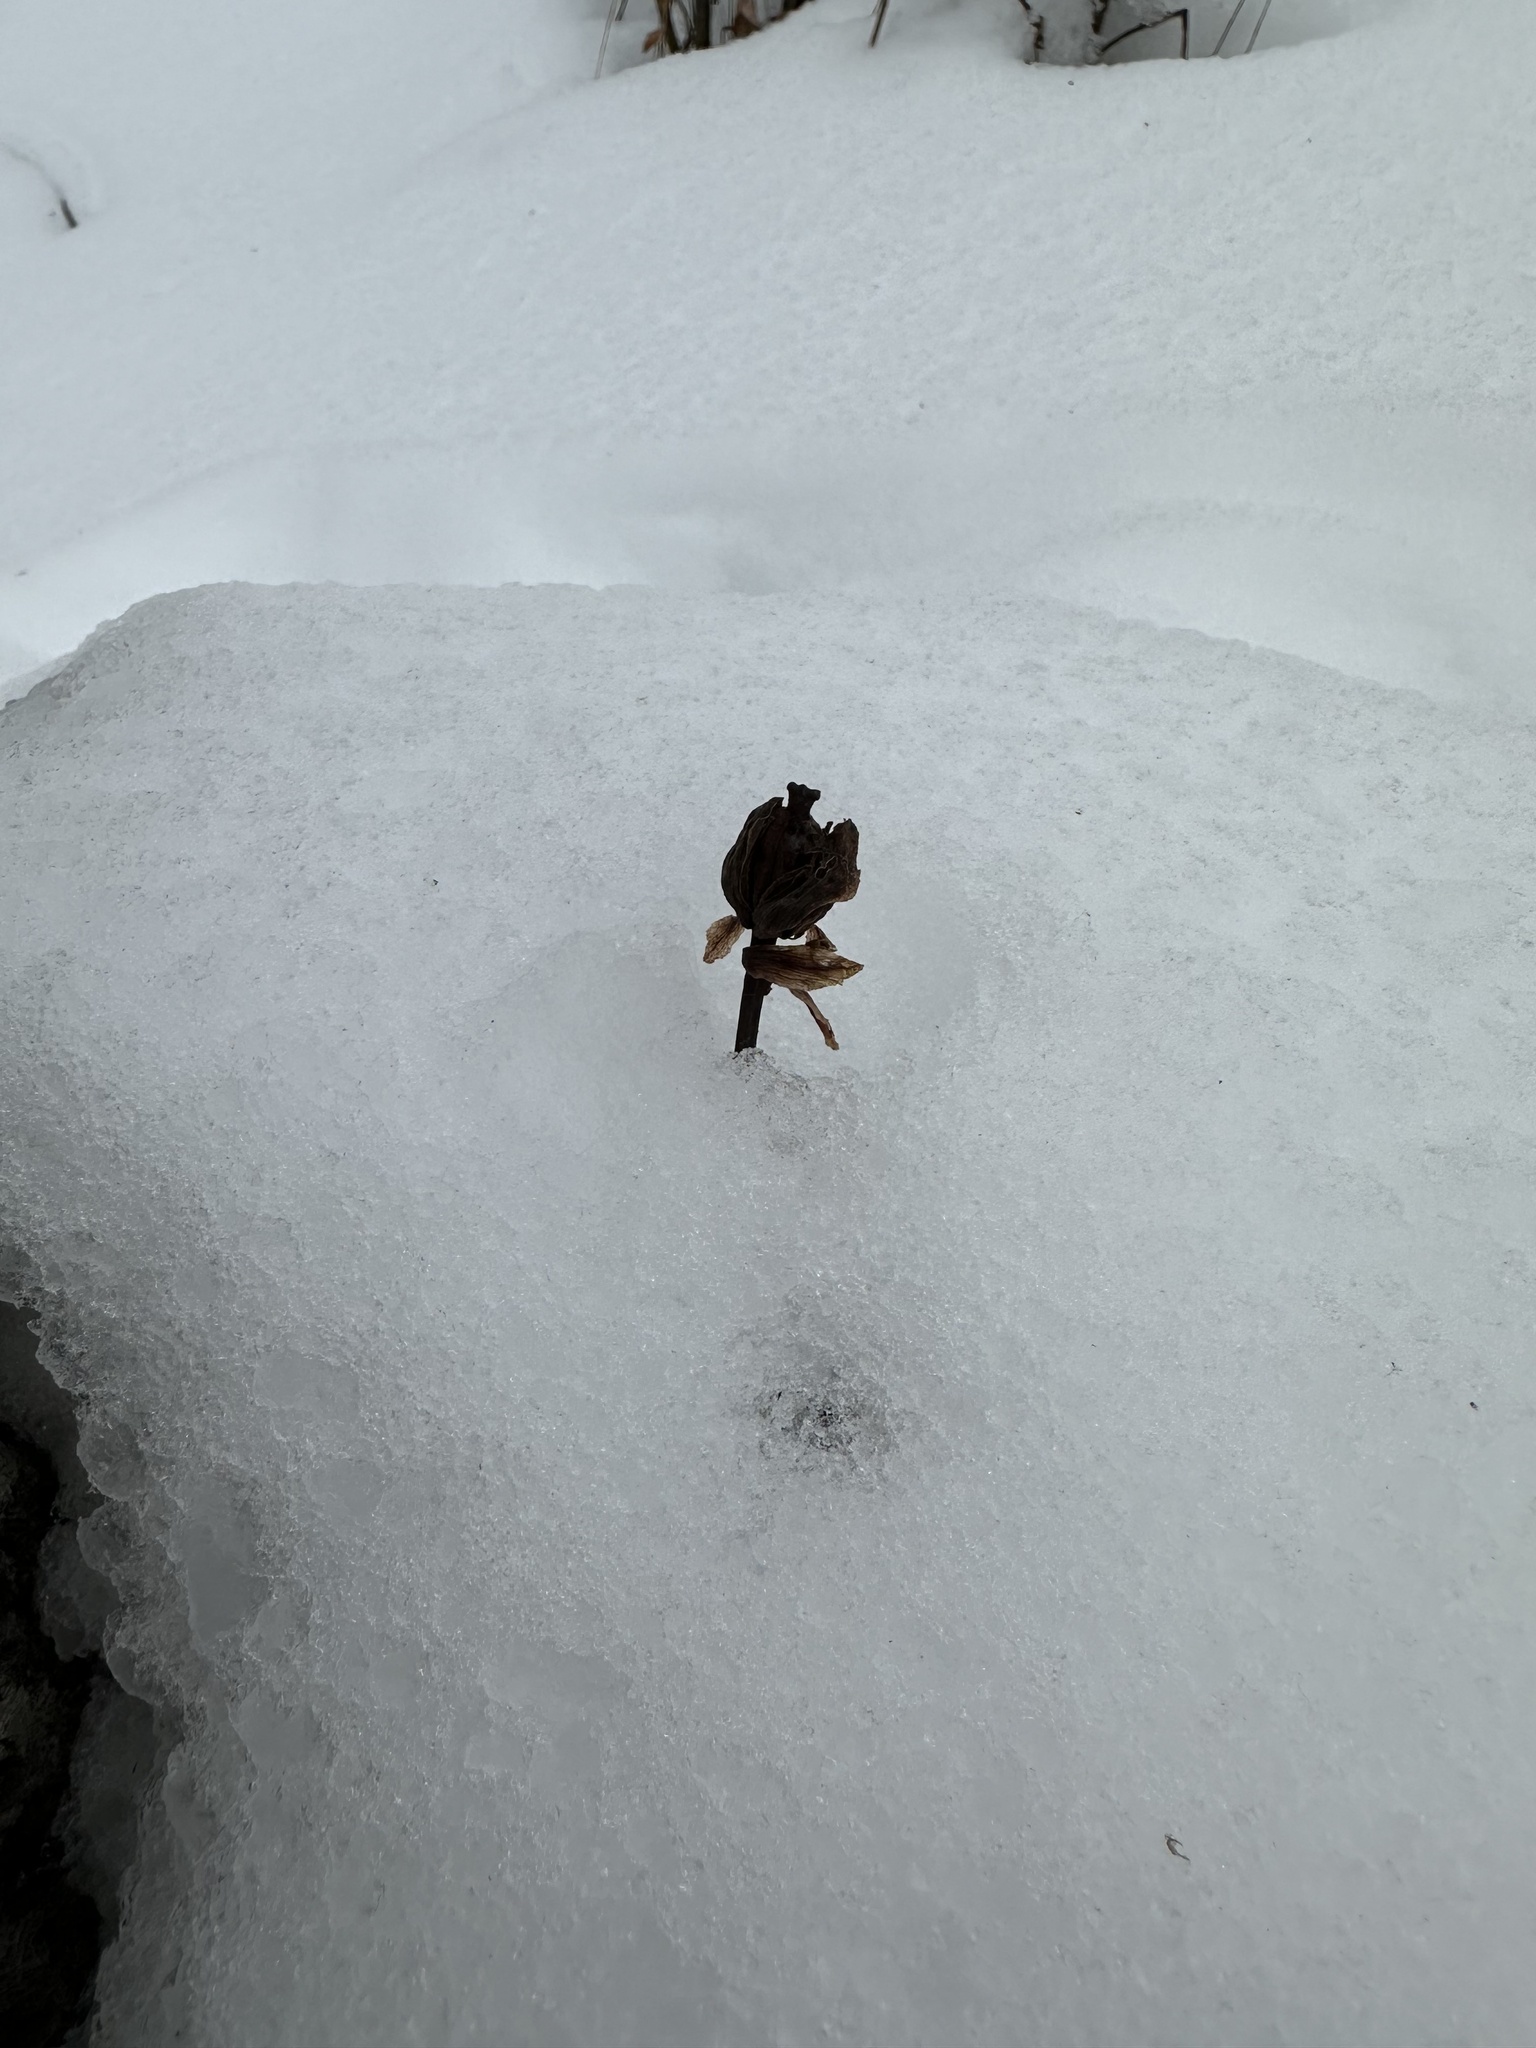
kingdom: Plantae
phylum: Tracheophyta
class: Magnoliopsida
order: Ericales
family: Ericaceae
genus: Monotropa
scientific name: Monotropa uniflora
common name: Convulsion root
